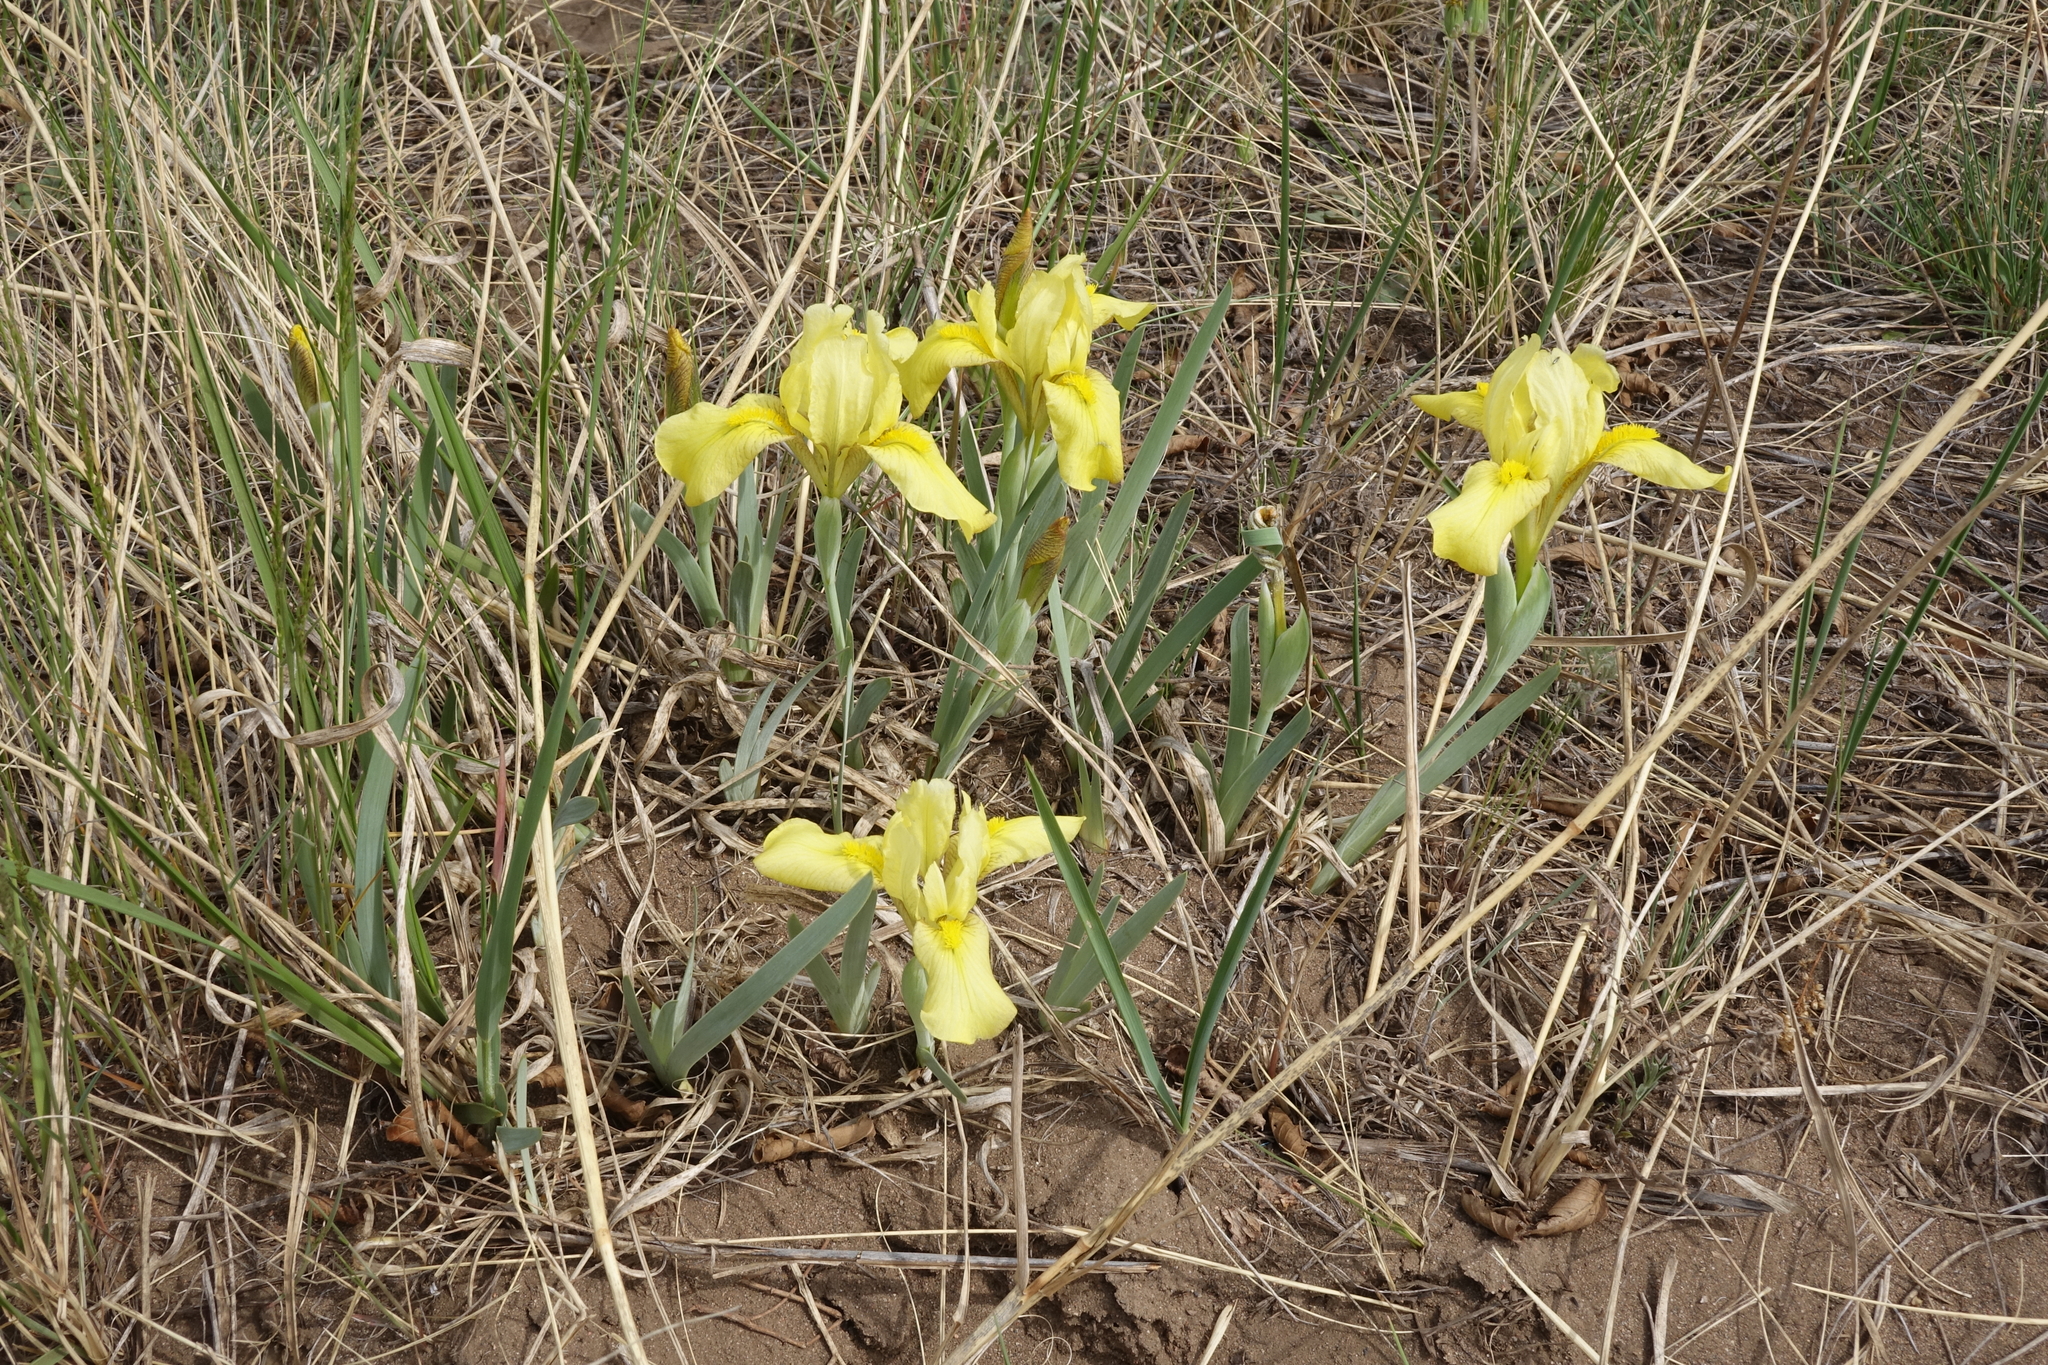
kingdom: Plantae
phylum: Tracheophyta
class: Liliopsida
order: Asparagales
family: Iridaceae
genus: Iris
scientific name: Iris humilis
